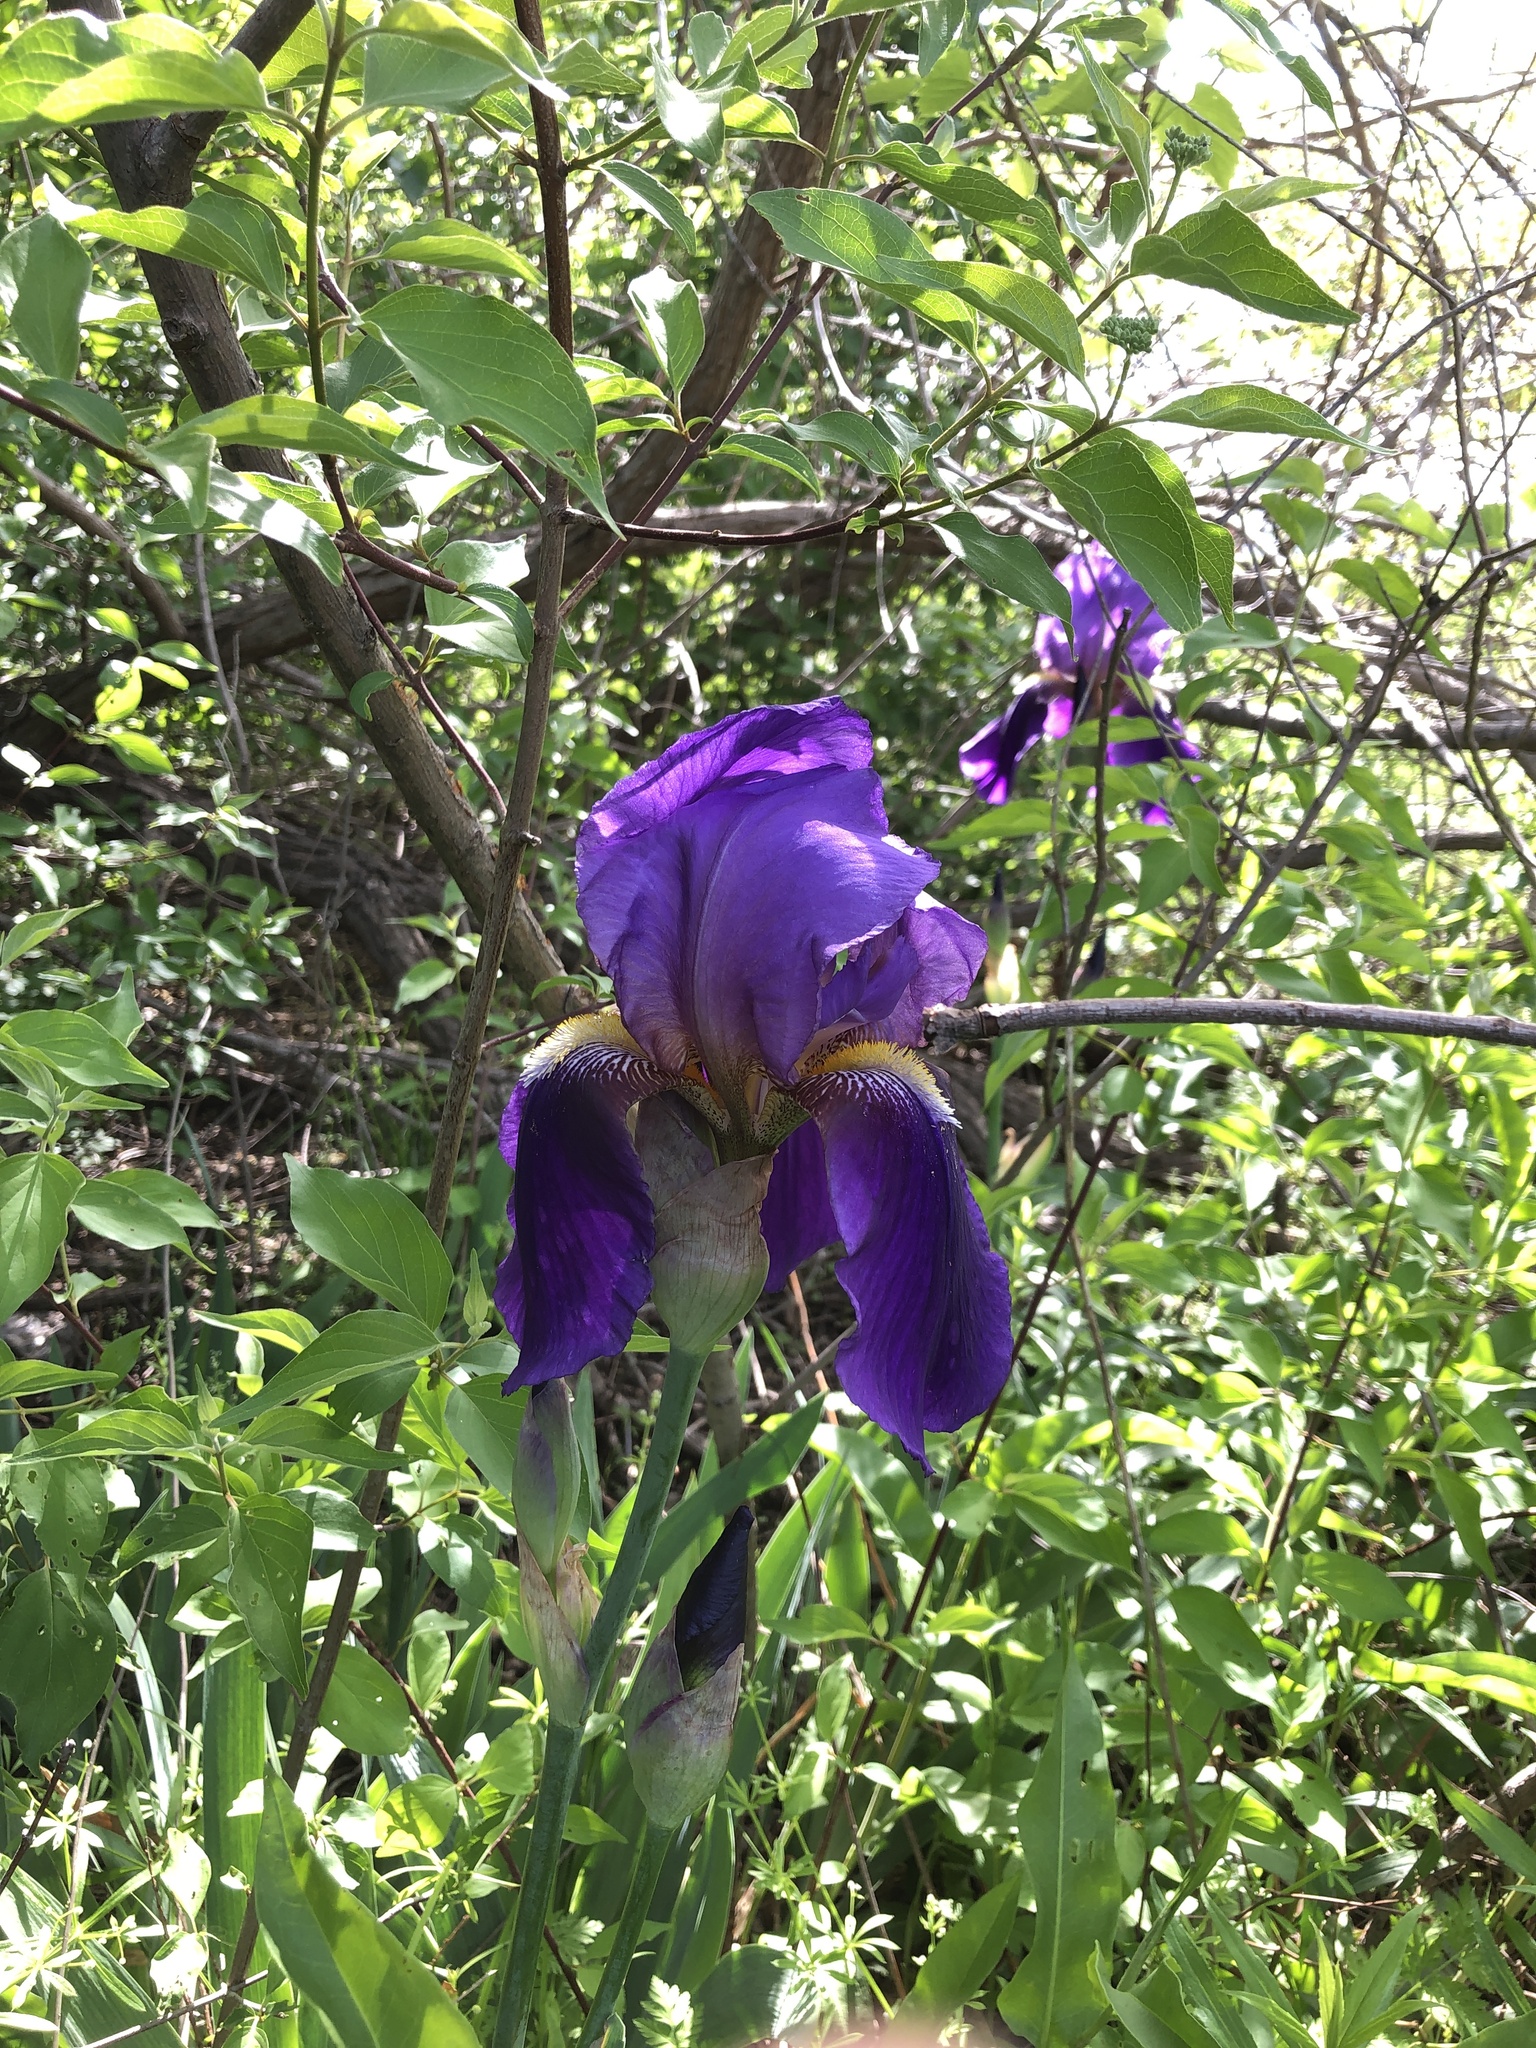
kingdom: Plantae
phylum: Tracheophyta
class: Liliopsida
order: Asparagales
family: Iridaceae
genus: Iris
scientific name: Iris hybrida
